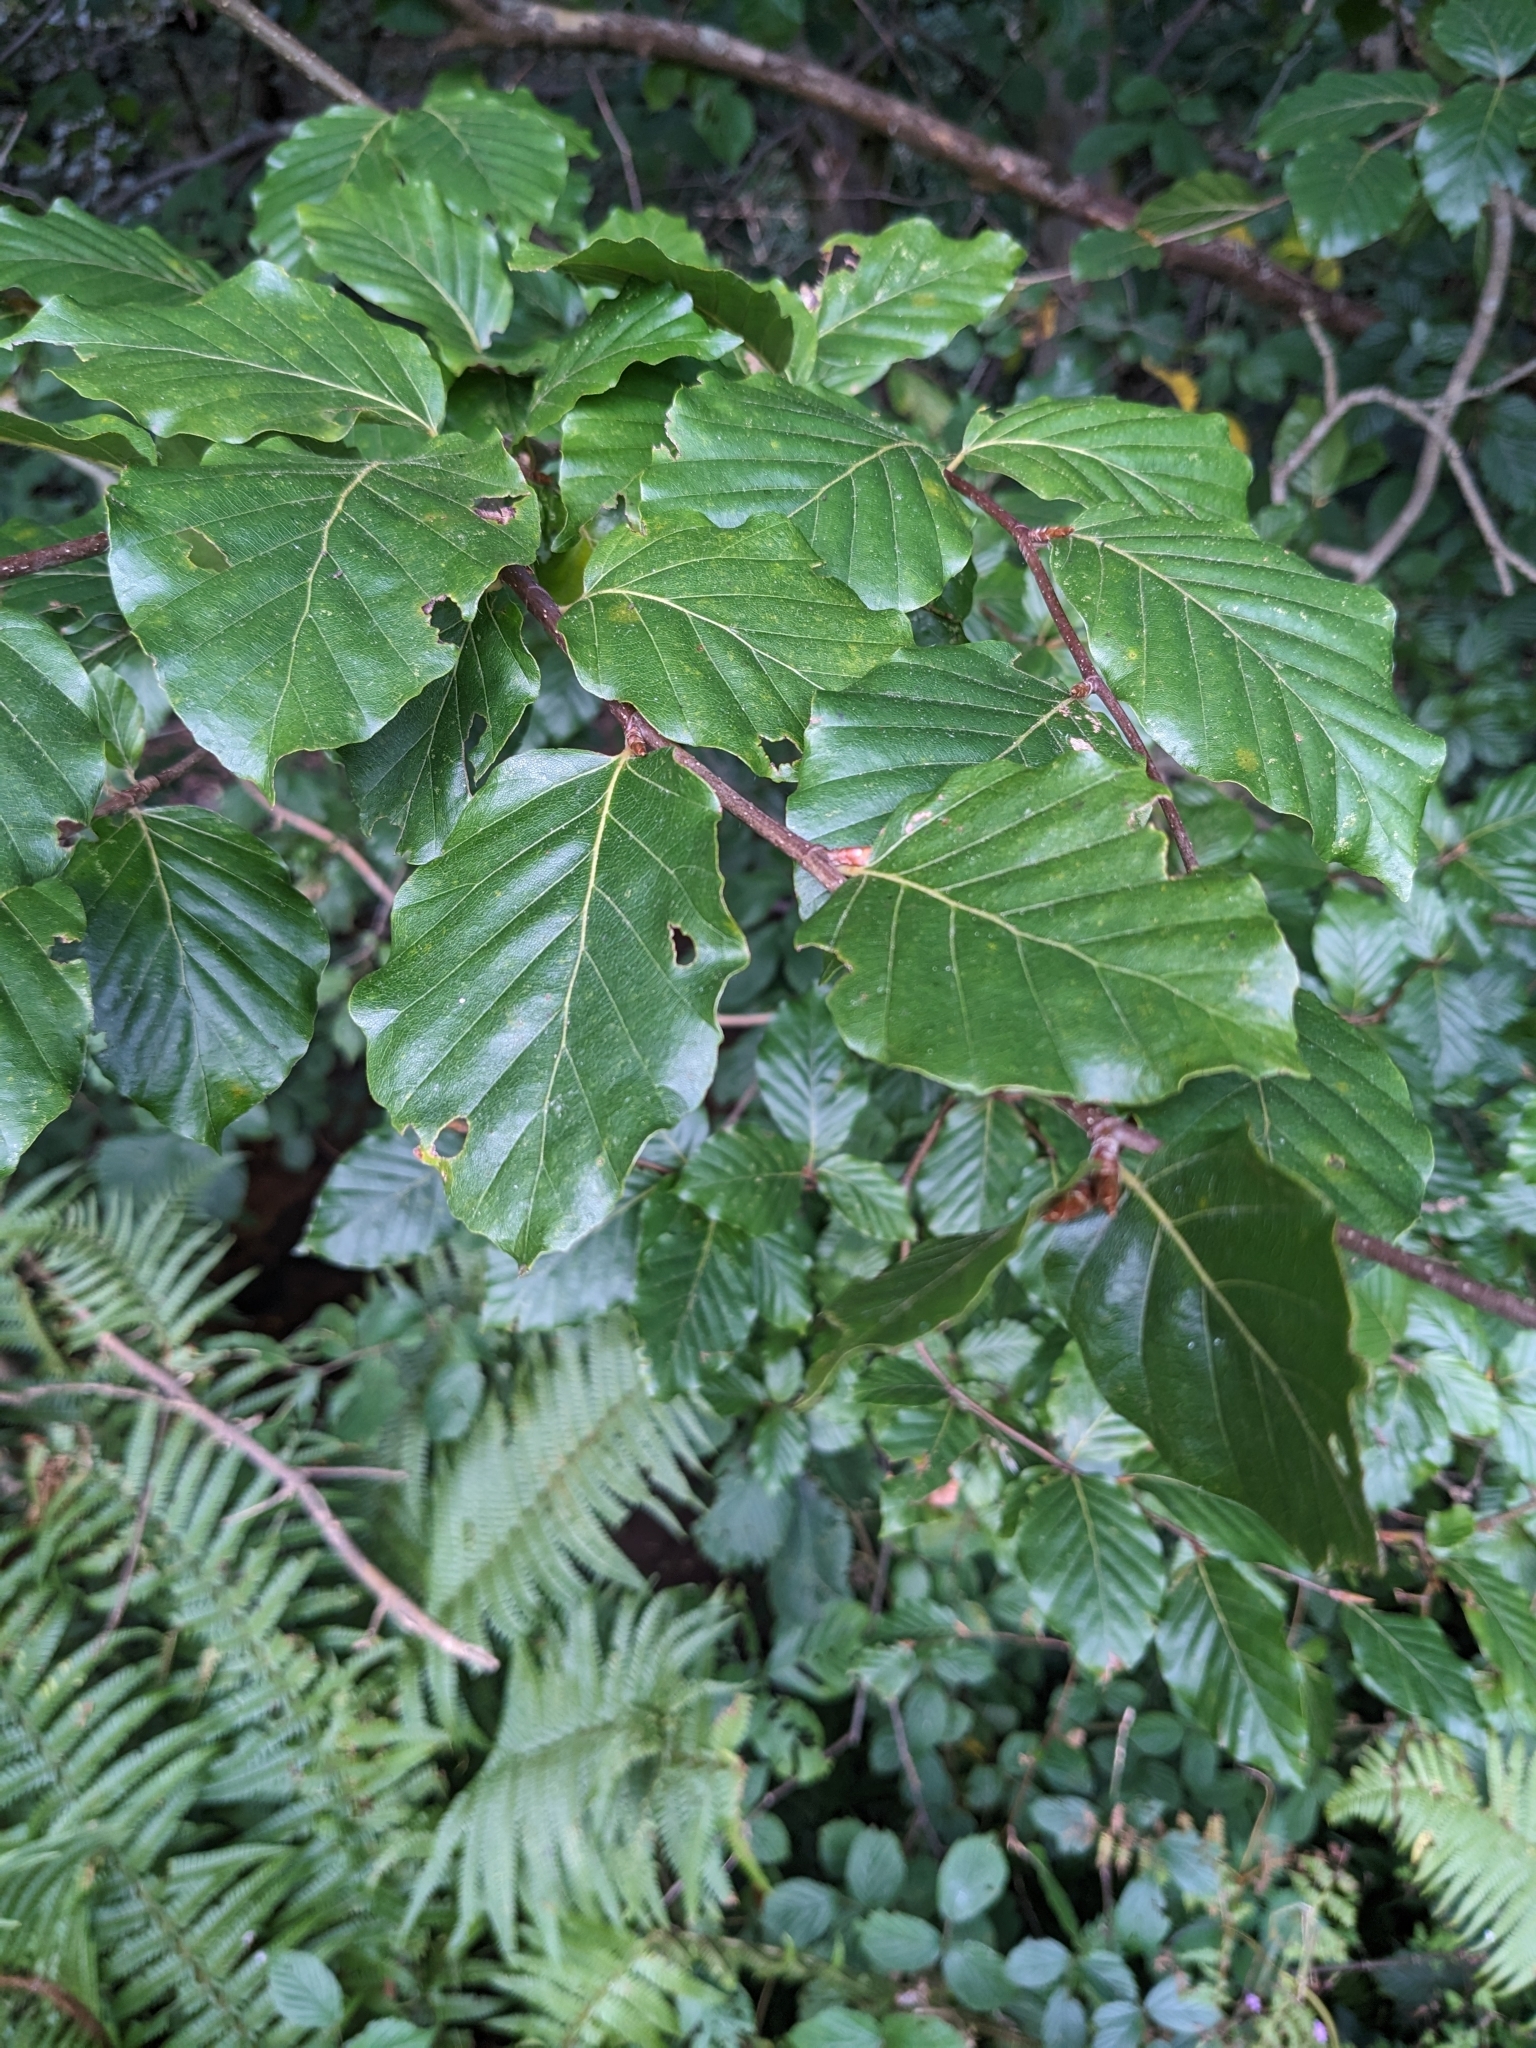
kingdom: Plantae
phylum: Tracheophyta
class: Magnoliopsida
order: Fagales
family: Fagaceae
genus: Fagus
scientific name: Fagus sylvatica
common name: Beech
